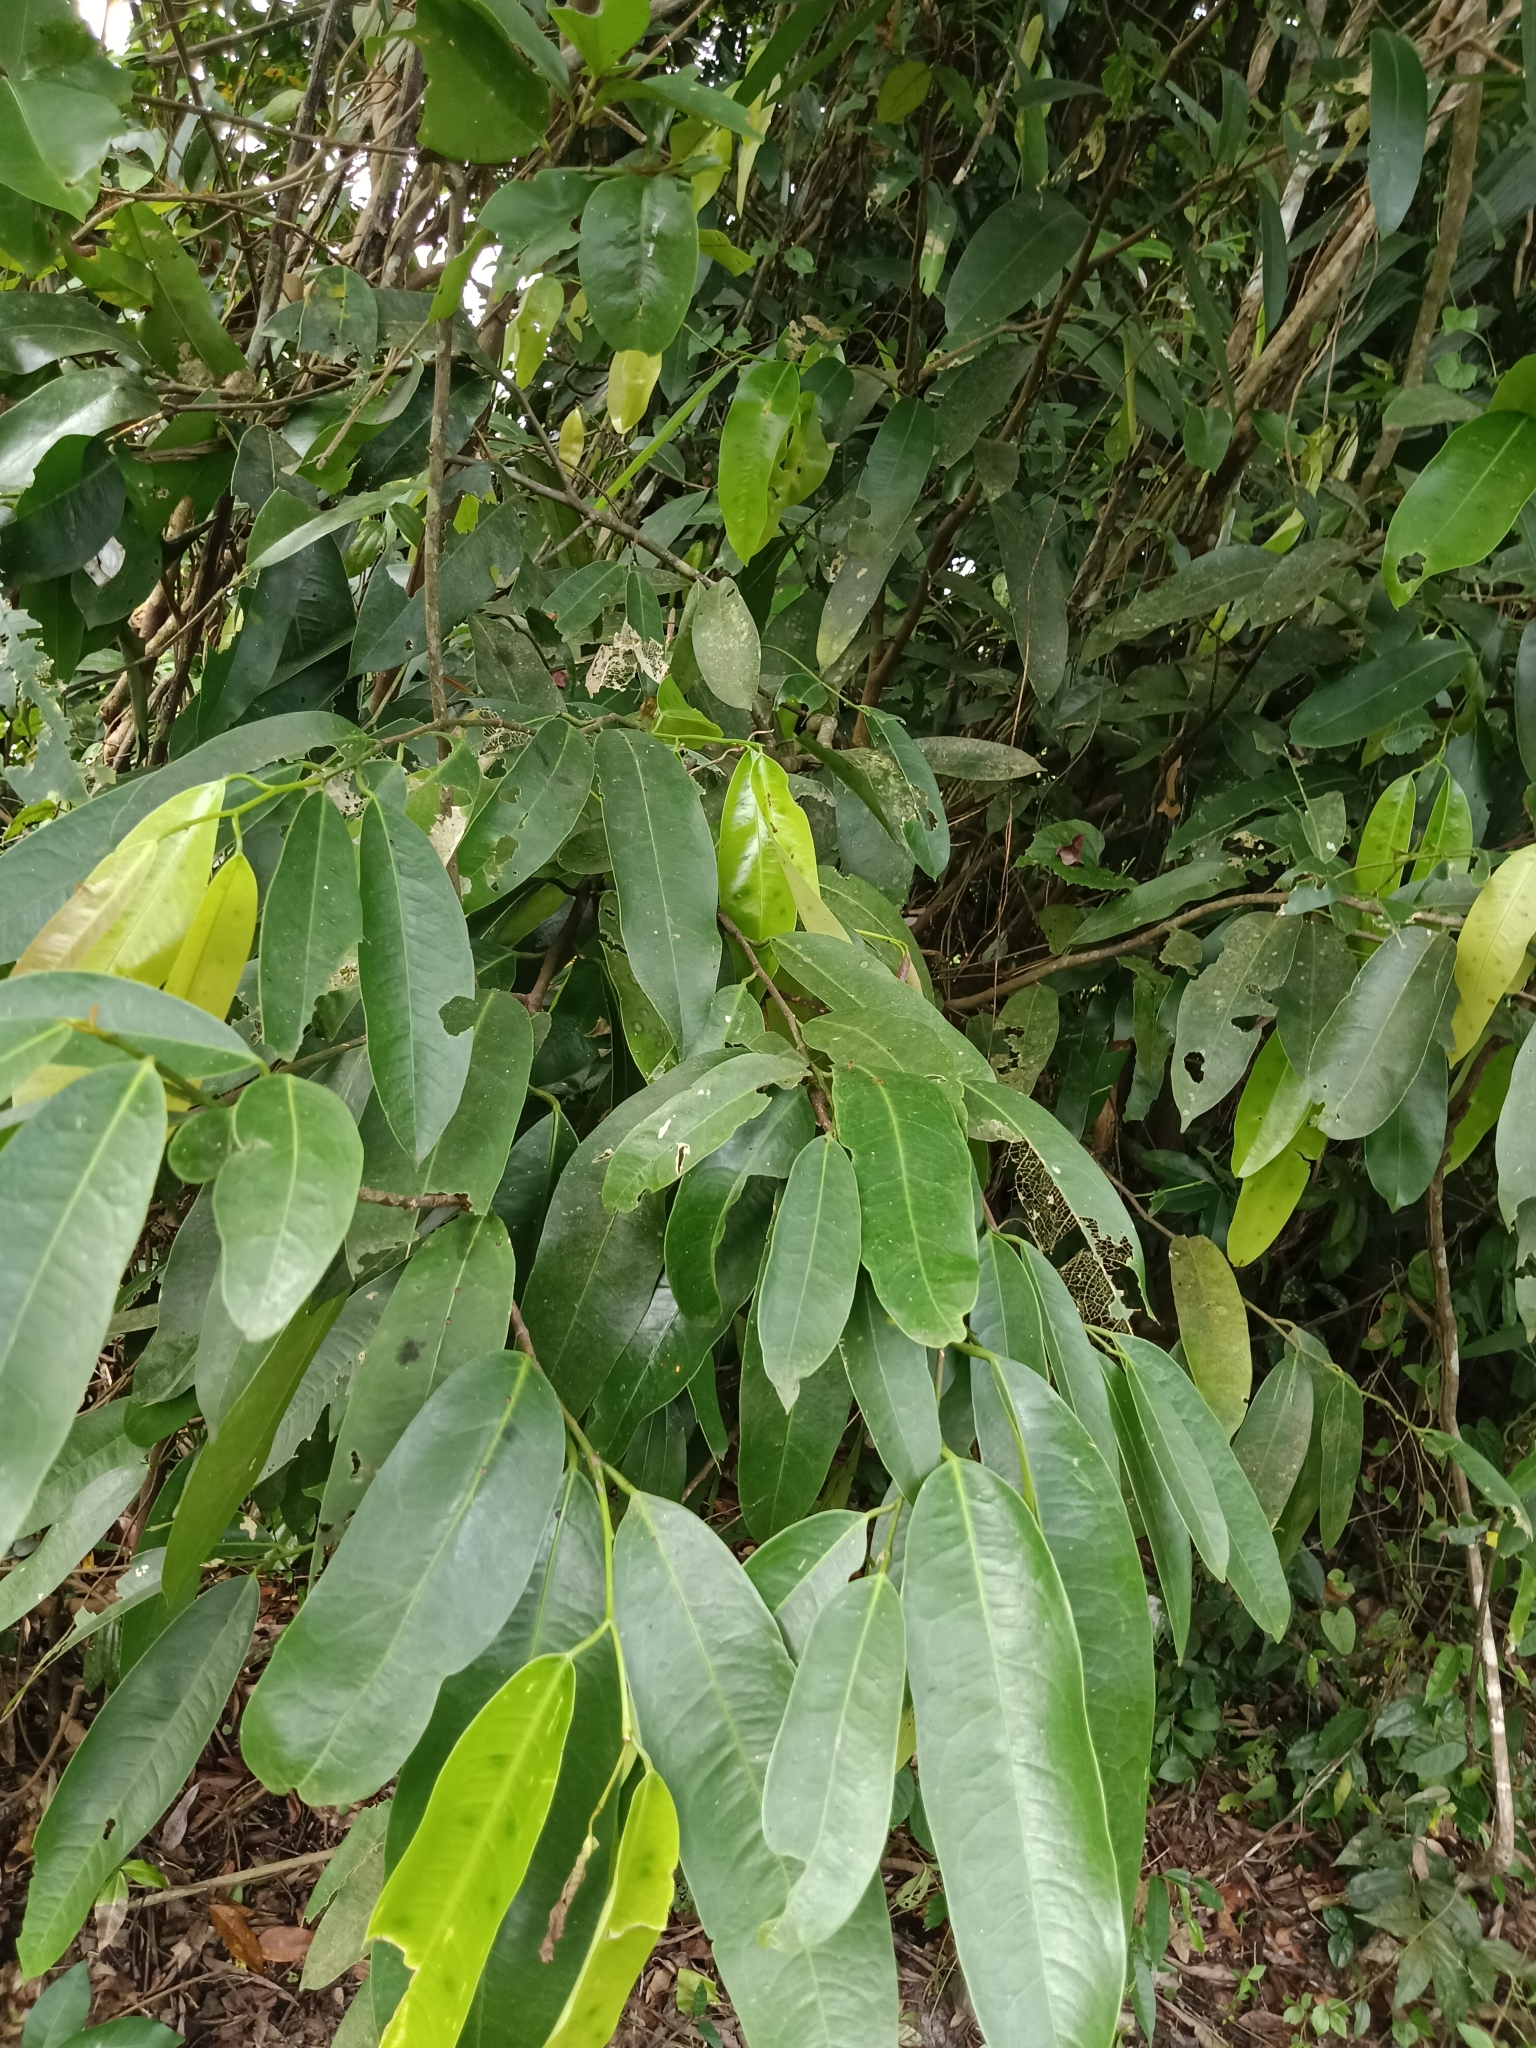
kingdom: Plantae
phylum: Tracheophyta
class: Magnoliopsida
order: Sapindales
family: Simaroubaceae
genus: Samadera
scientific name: Samadera indica
